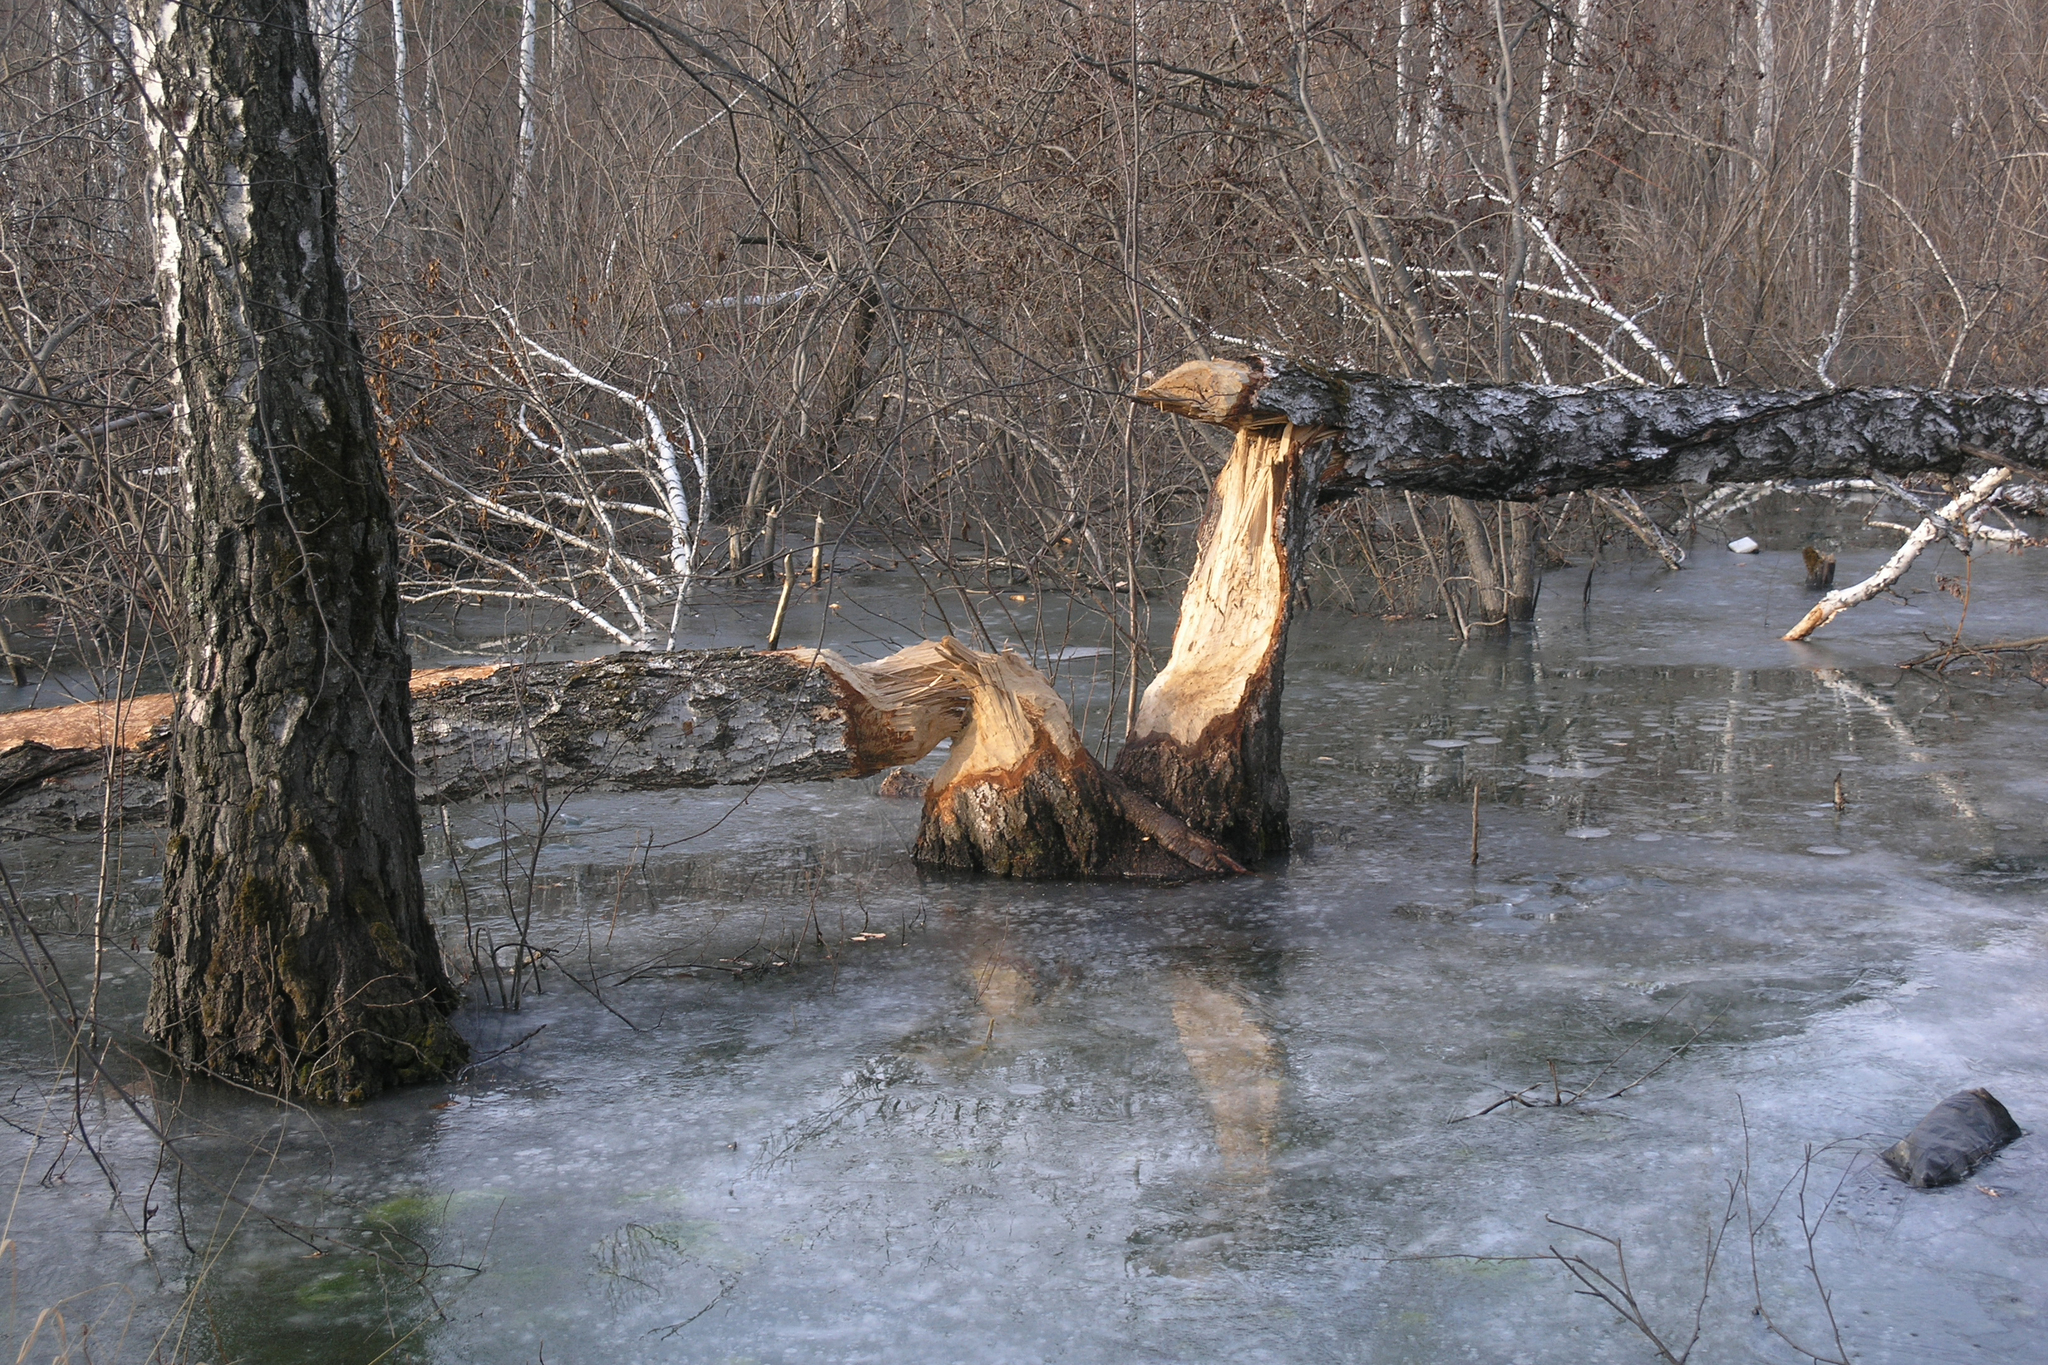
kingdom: Animalia
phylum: Chordata
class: Mammalia
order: Rodentia
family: Castoridae
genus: Castor
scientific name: Castor fiber
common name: Eurasian beaver
